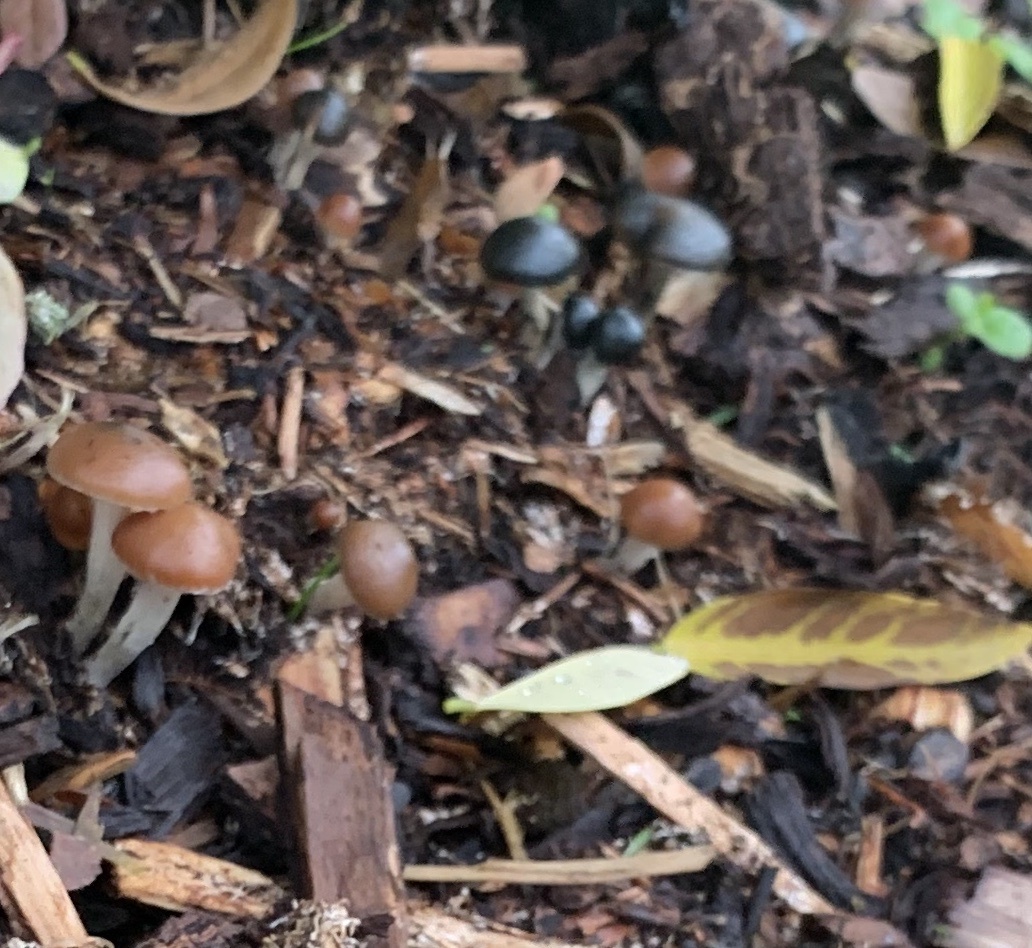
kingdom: Fungi
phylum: Basidiomycota
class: Agaricomycetes
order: Agaricales
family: Hymenogastraceae
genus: Psilocybe
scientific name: Psilocybe cyanescens
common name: Blueleg brownie
